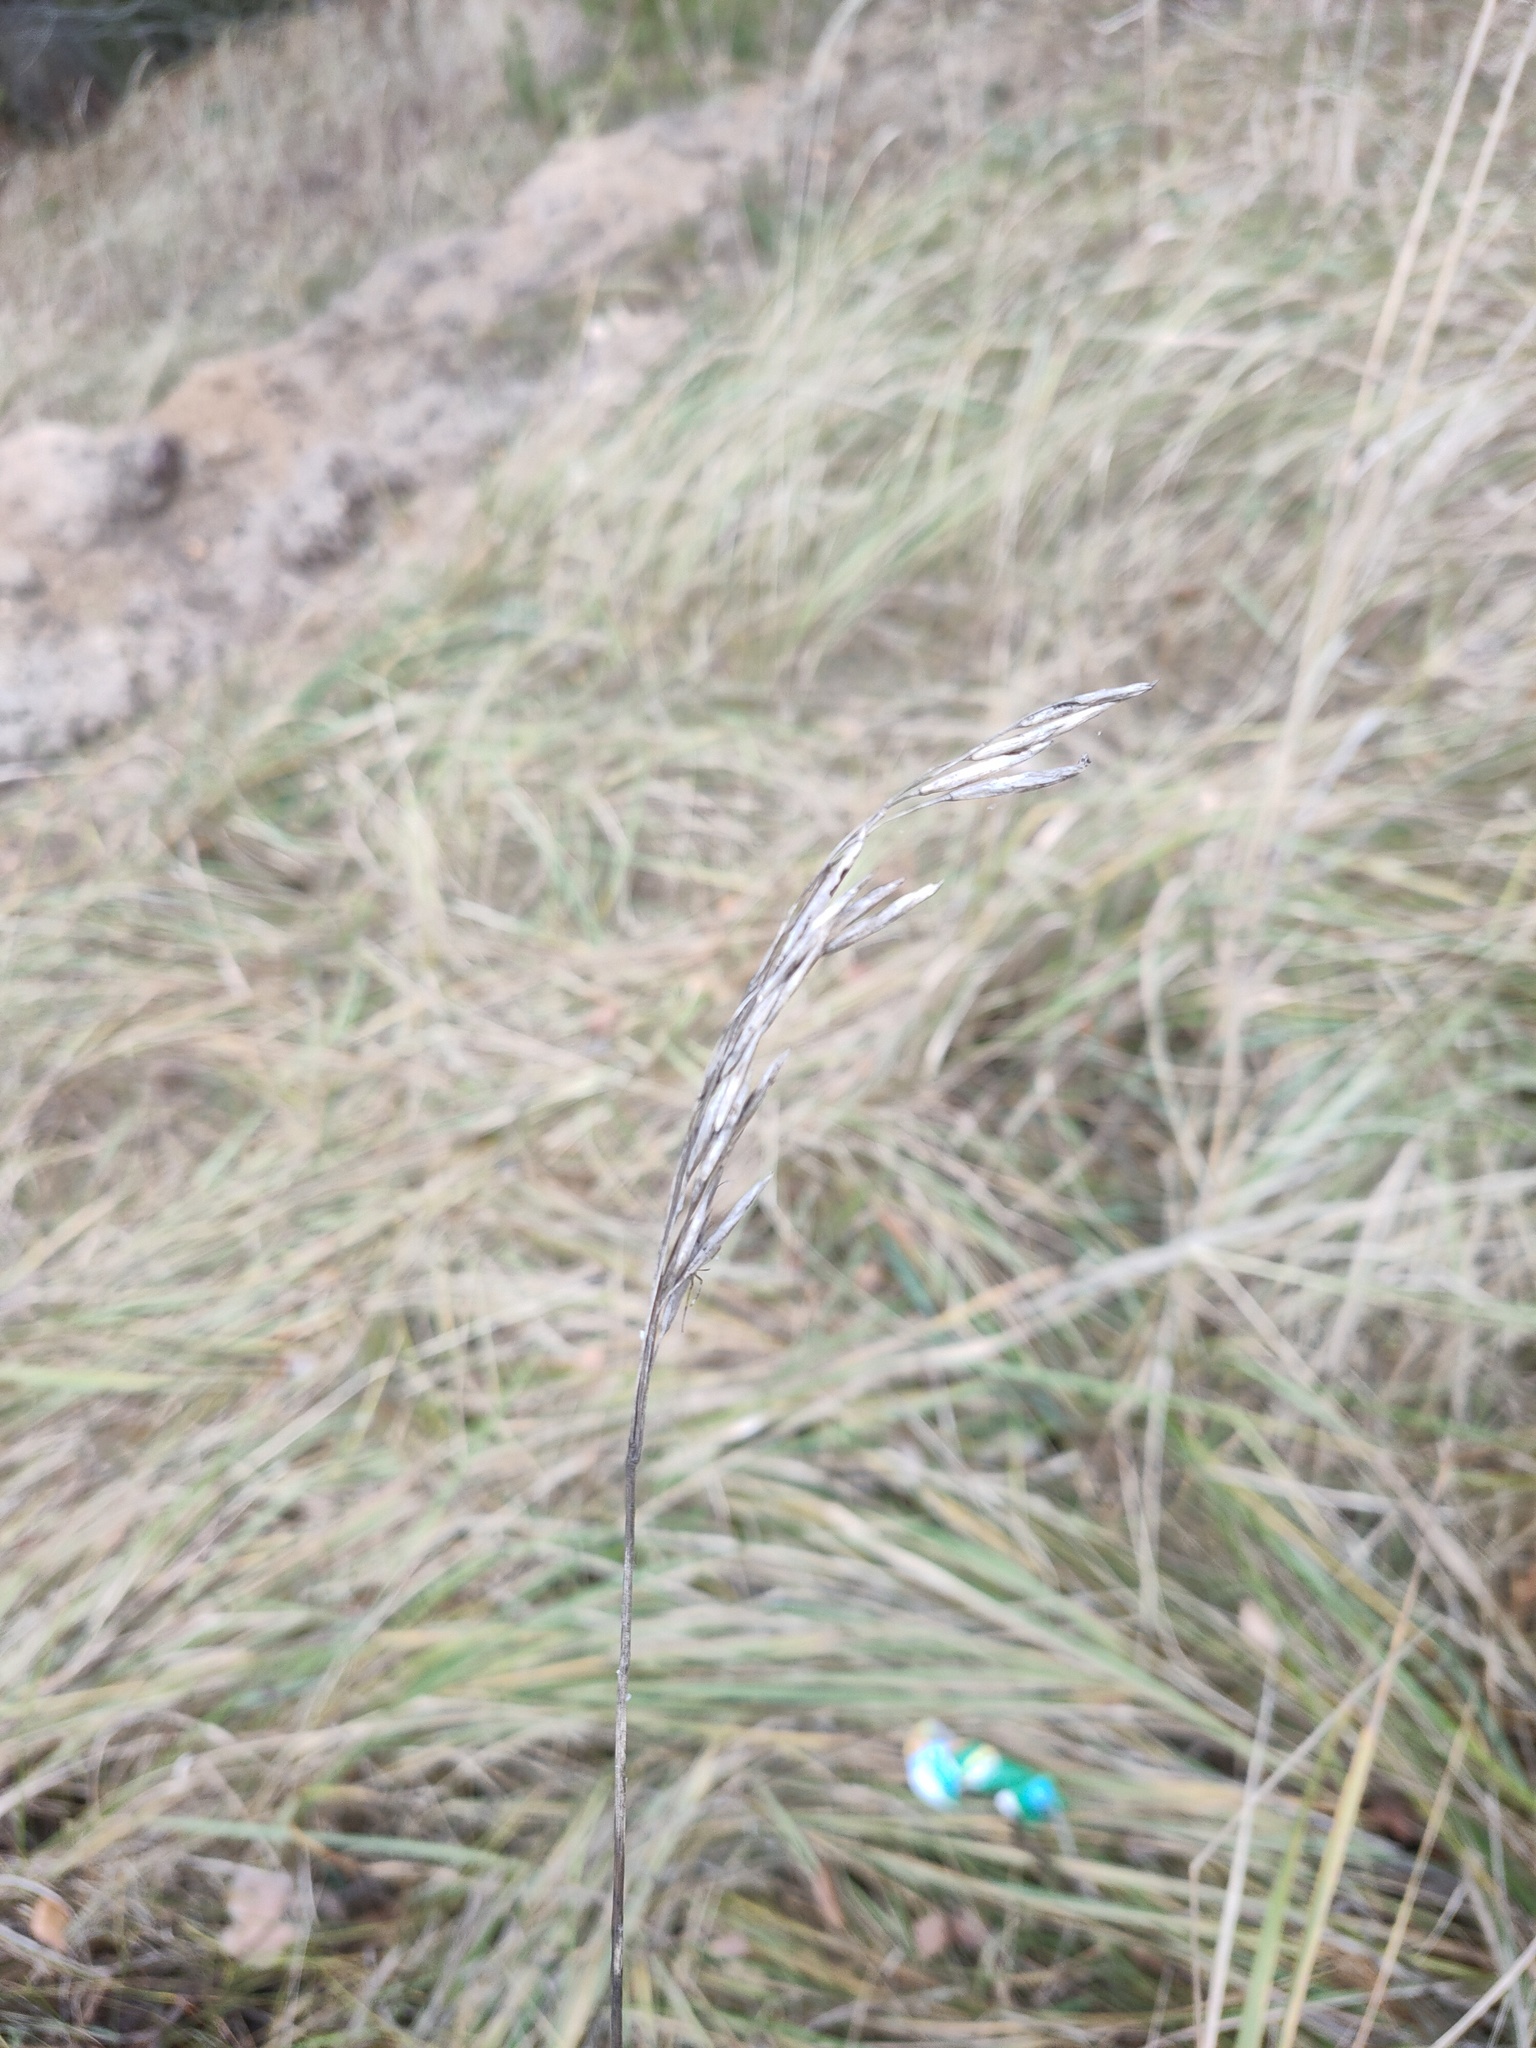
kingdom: Plantae
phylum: Tracheophyta
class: Liliopsida
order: Poales
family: Poaceae
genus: Bromus
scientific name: Bromus inermis
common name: Smooth brome
